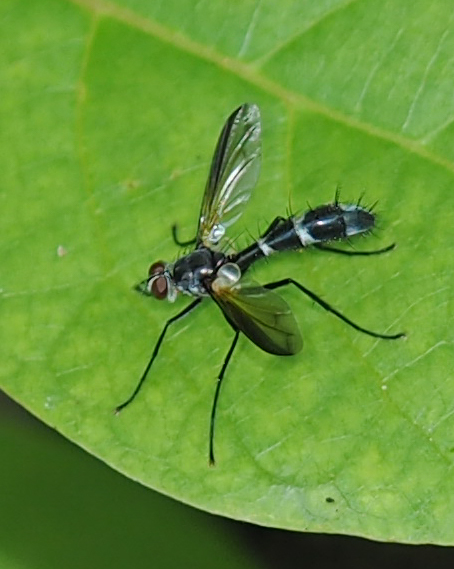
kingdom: Animalia
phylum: Arthropoda
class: Insecta
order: Diptera
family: Tachinidae
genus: Cordyligaster
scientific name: Cordyligaster septentrionalis
